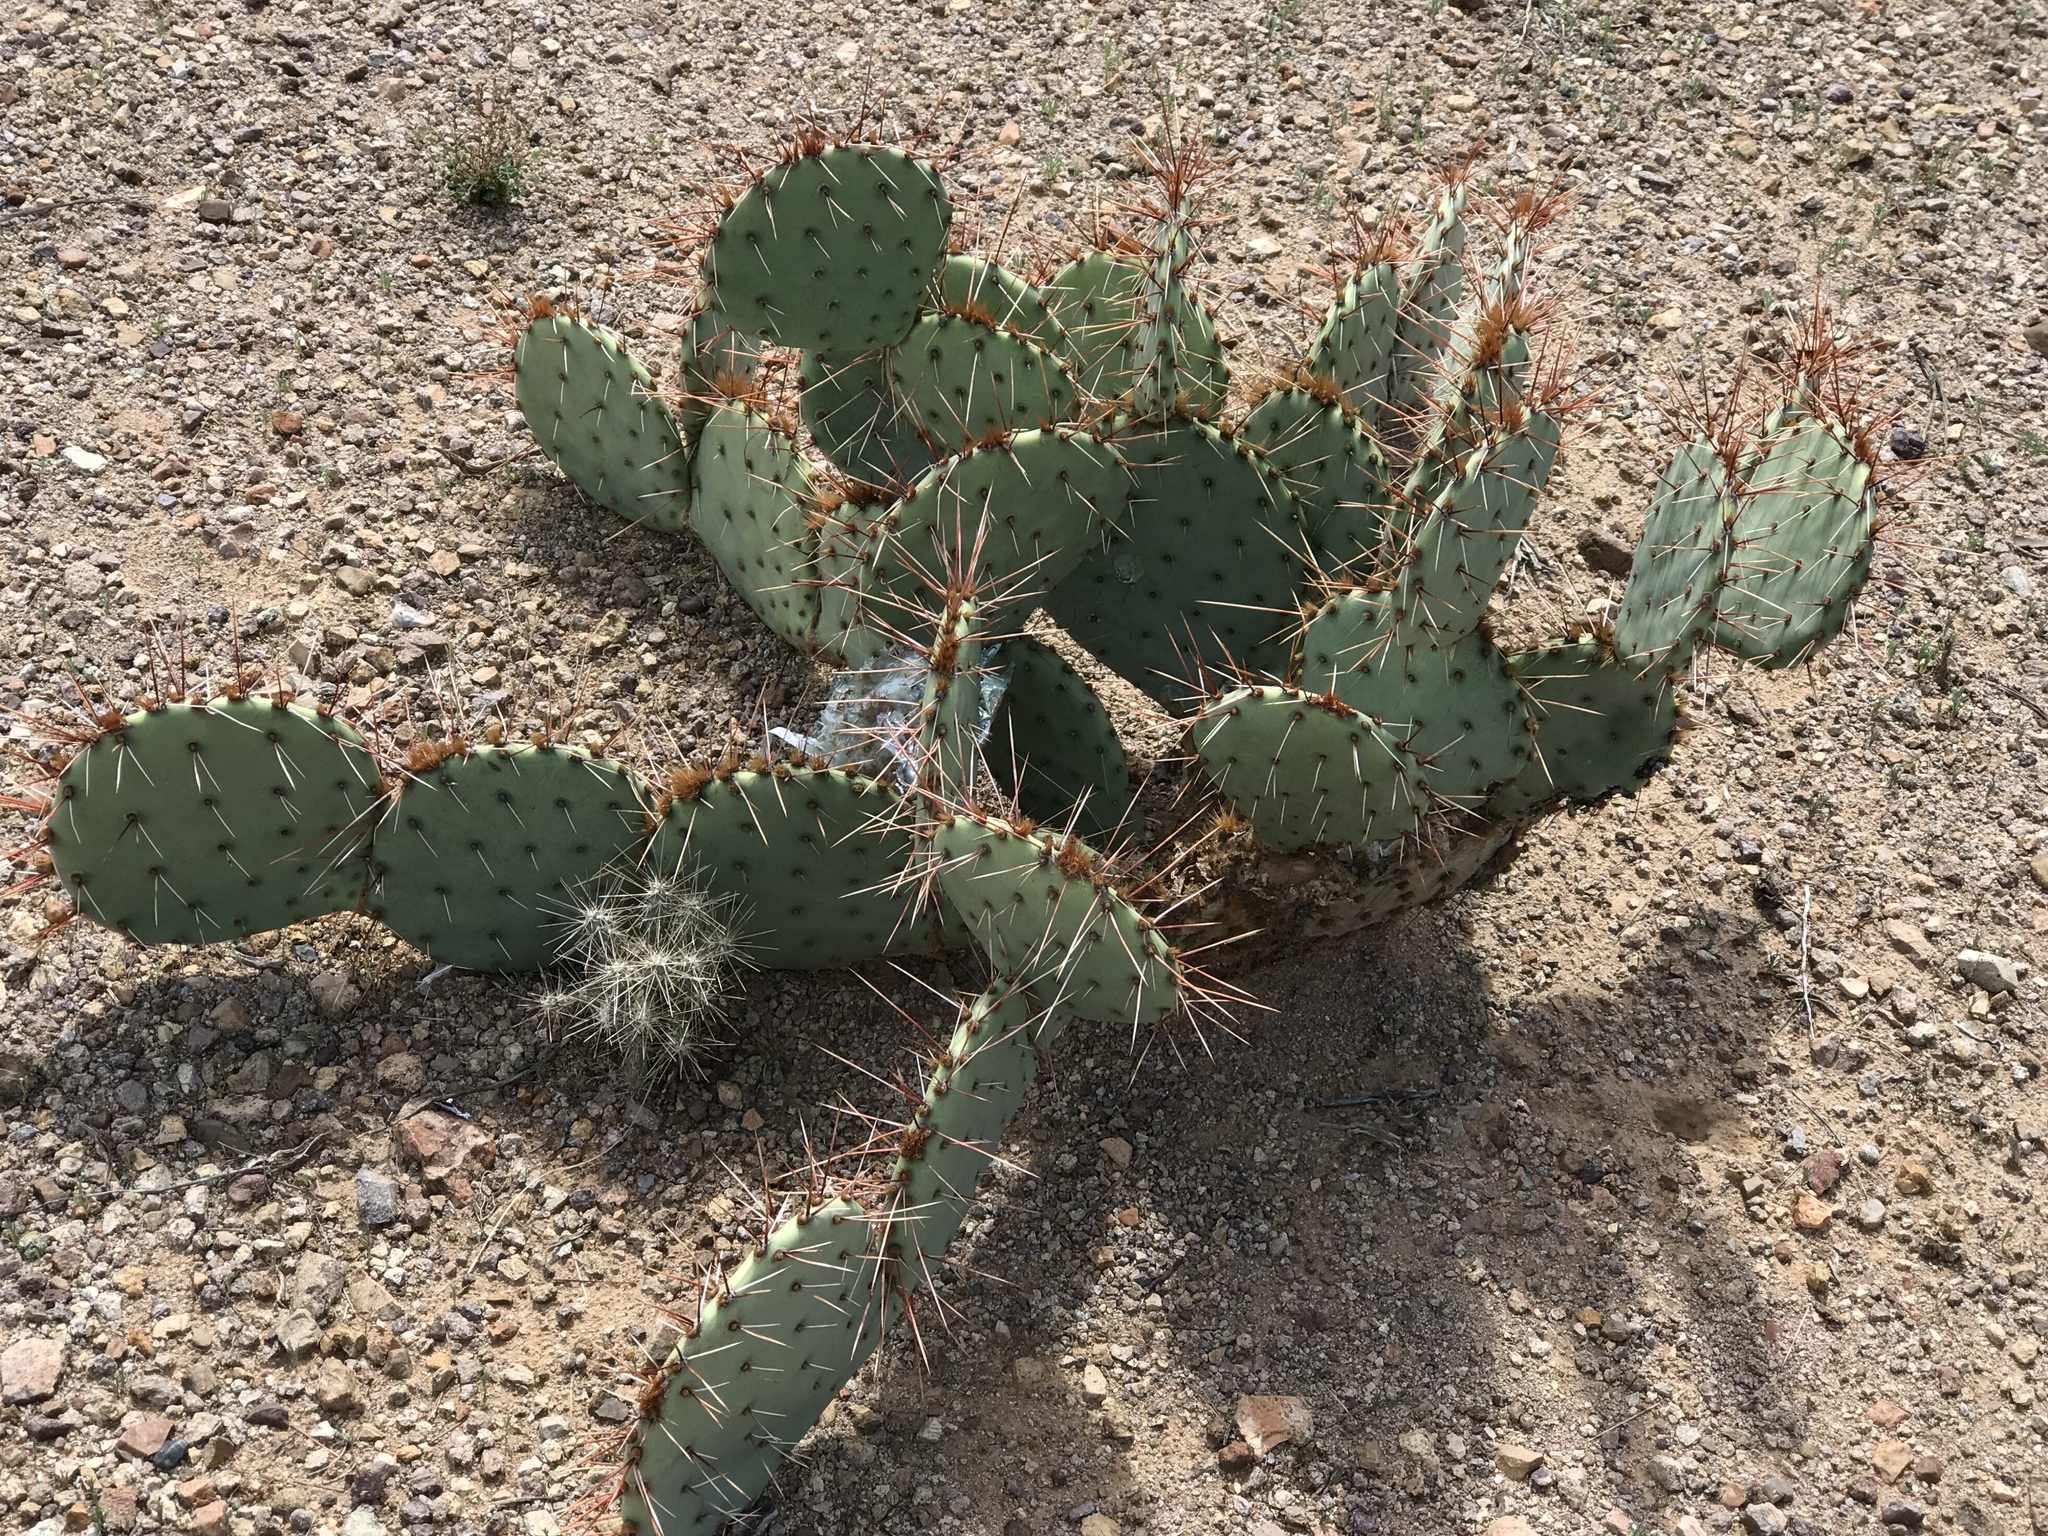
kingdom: Plantae
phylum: Tracheophyta
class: Magnoliopsida
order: Caryophyllales
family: Cactaceae
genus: Opuntia
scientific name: Opuntia phaeacantha
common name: New mexico prickly-pear
